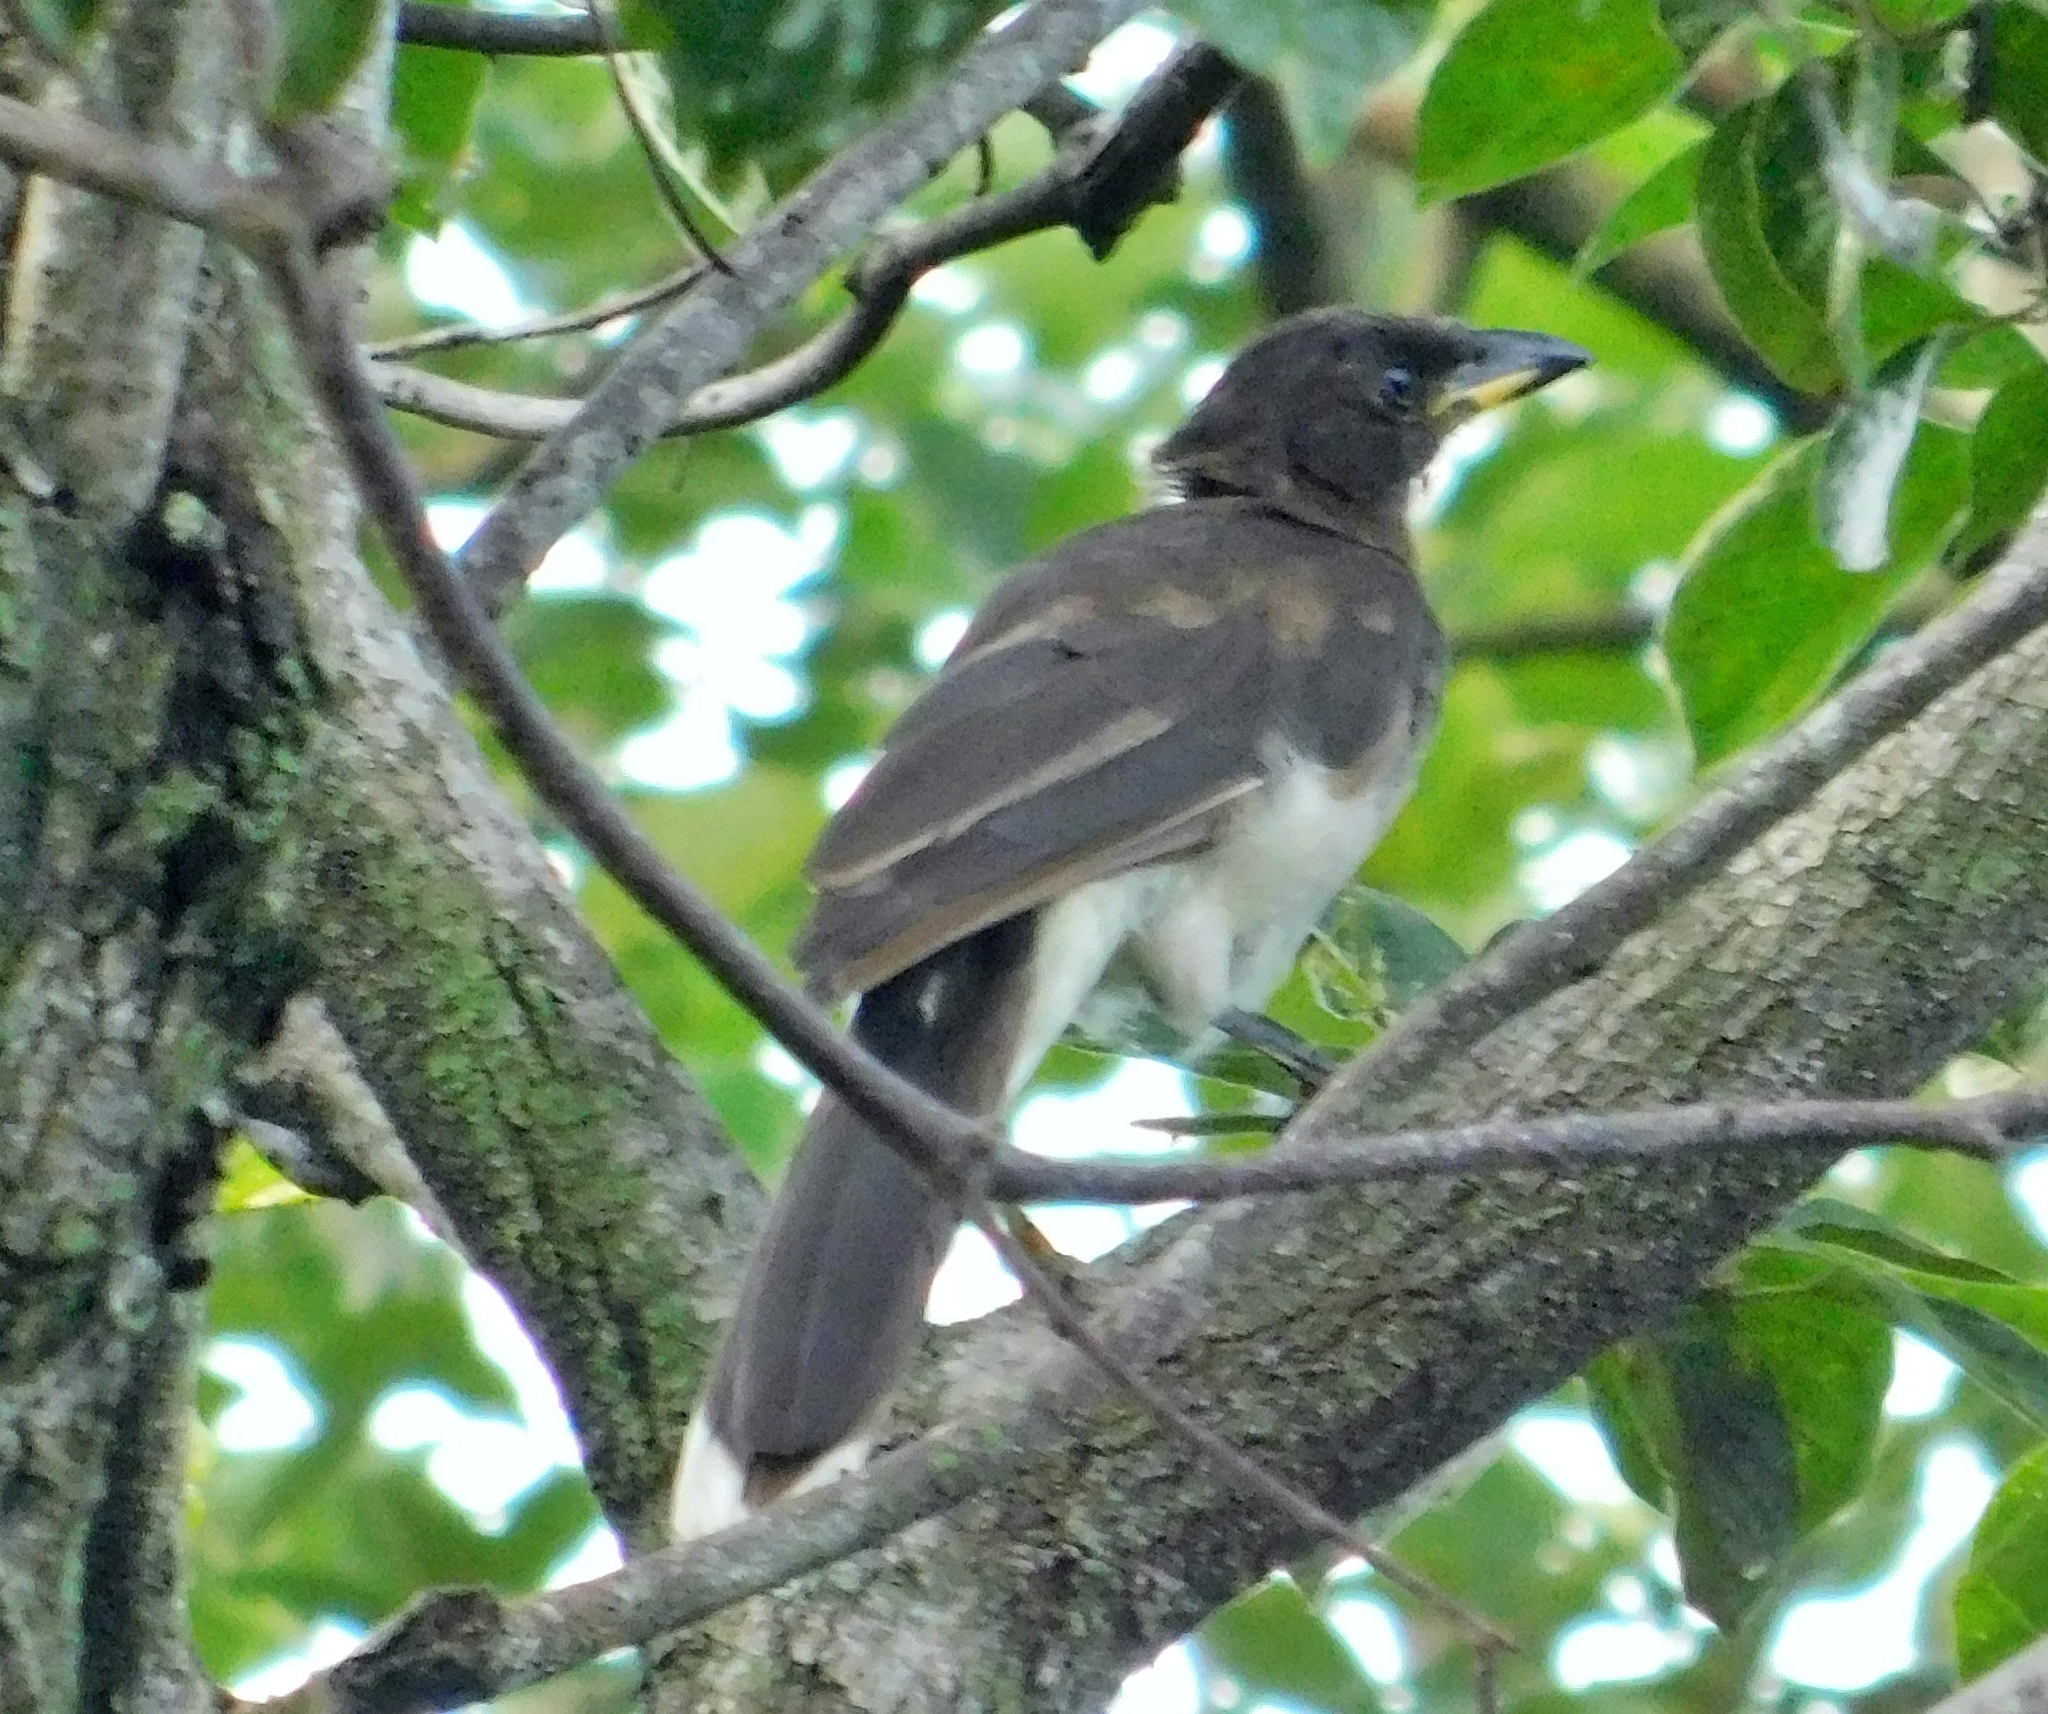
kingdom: Animalia
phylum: Chordata
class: Aves
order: Passeriformes
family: Corvidae
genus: Psilorhinus
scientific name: Psilorhinus morio
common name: Brown jay
